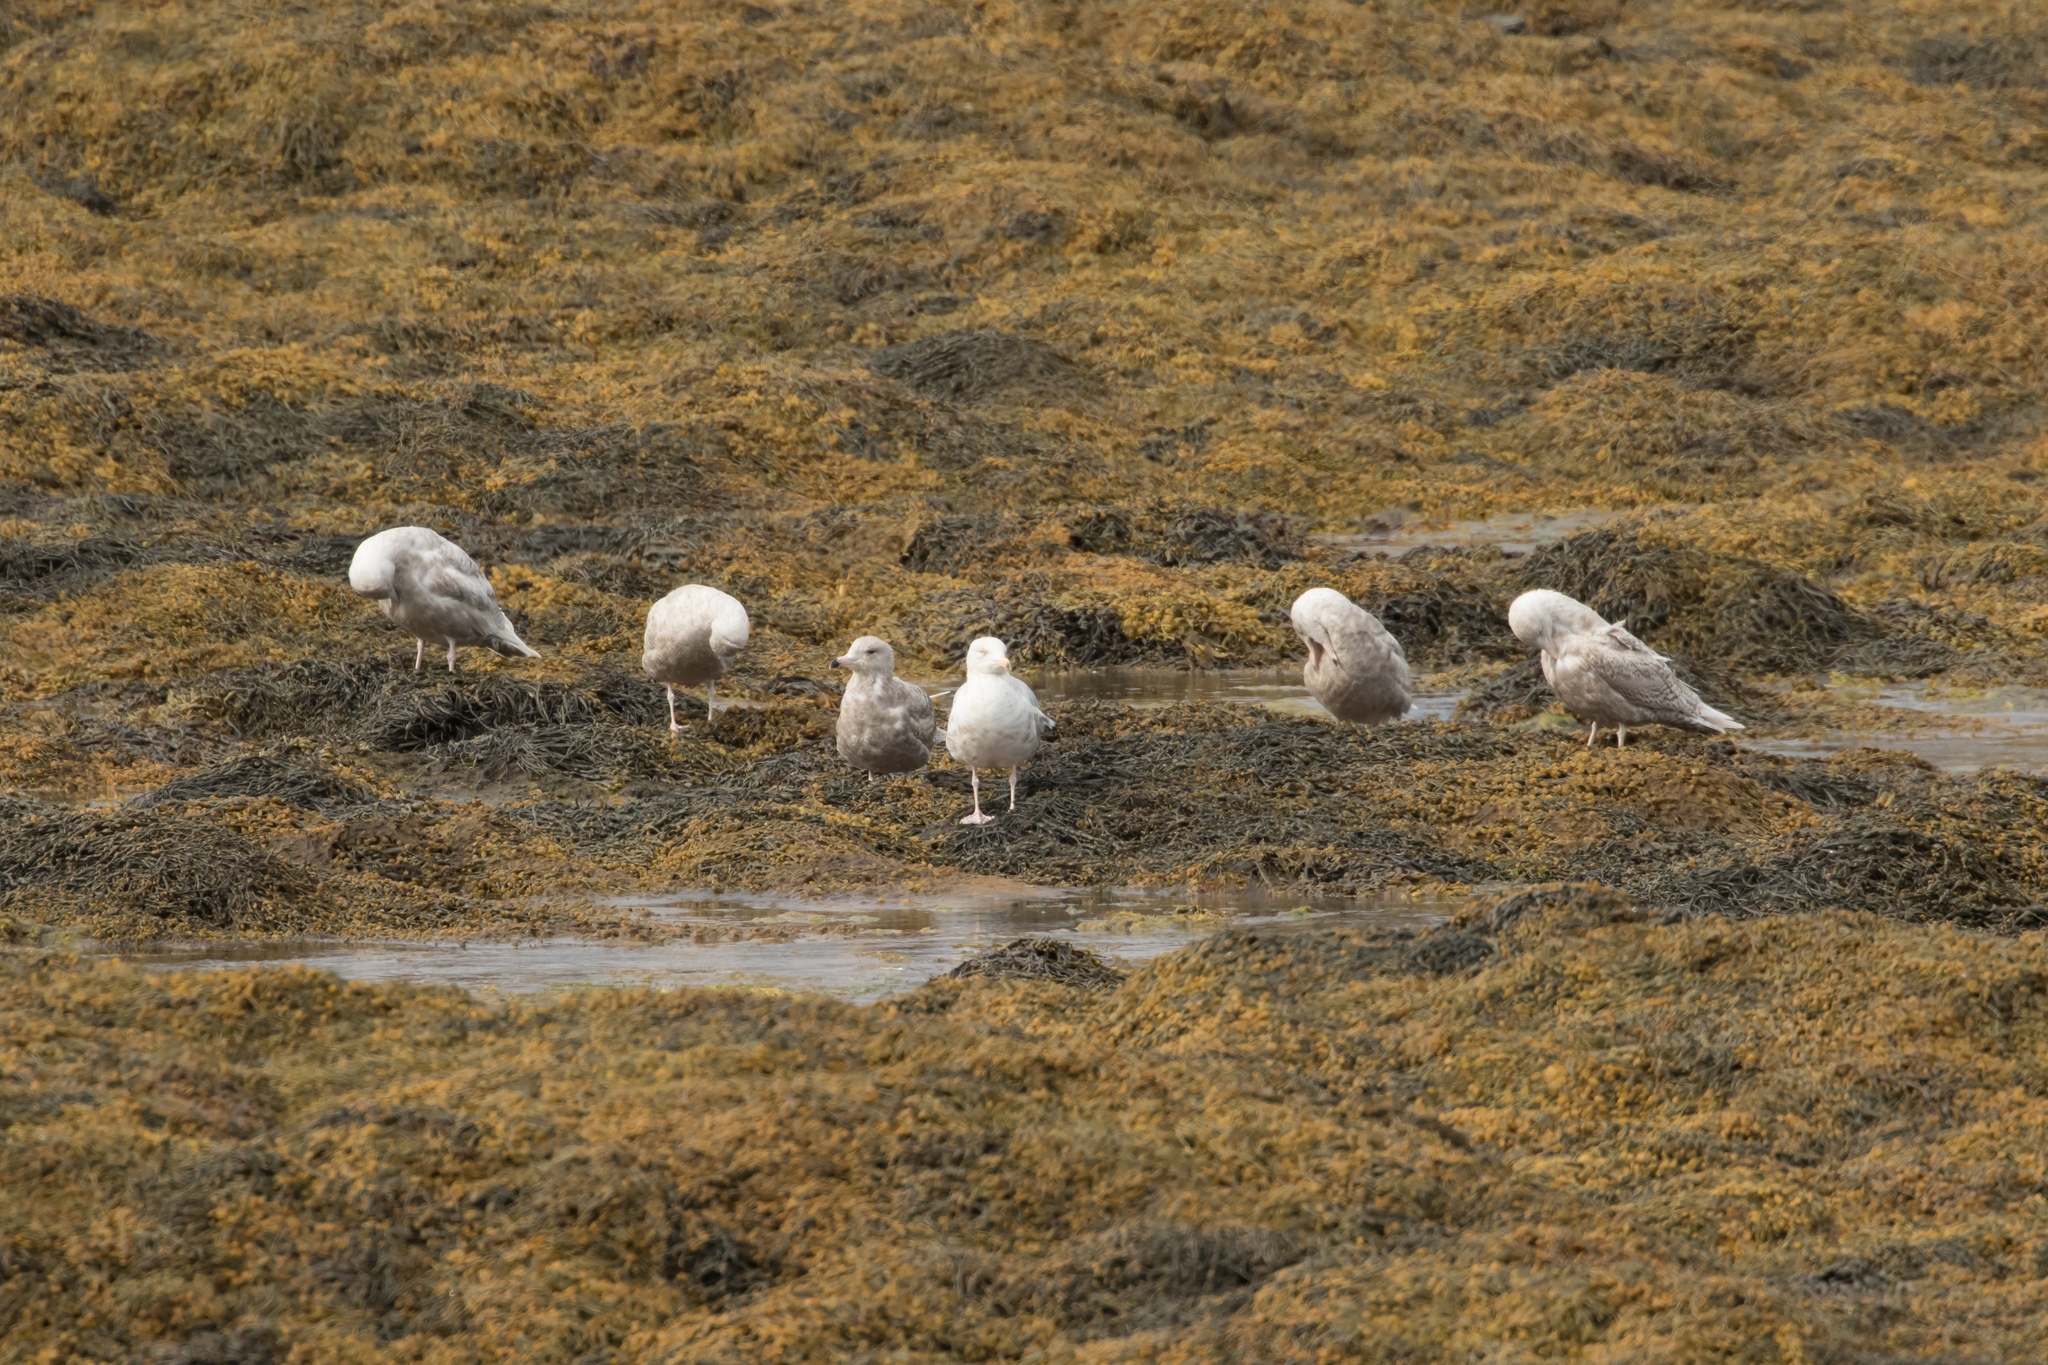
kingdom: Animalia
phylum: Chordata
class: Aves
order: Charadriiformes
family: Laridae
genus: Larus
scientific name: Larus hyperboreus
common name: Glaucous gull
